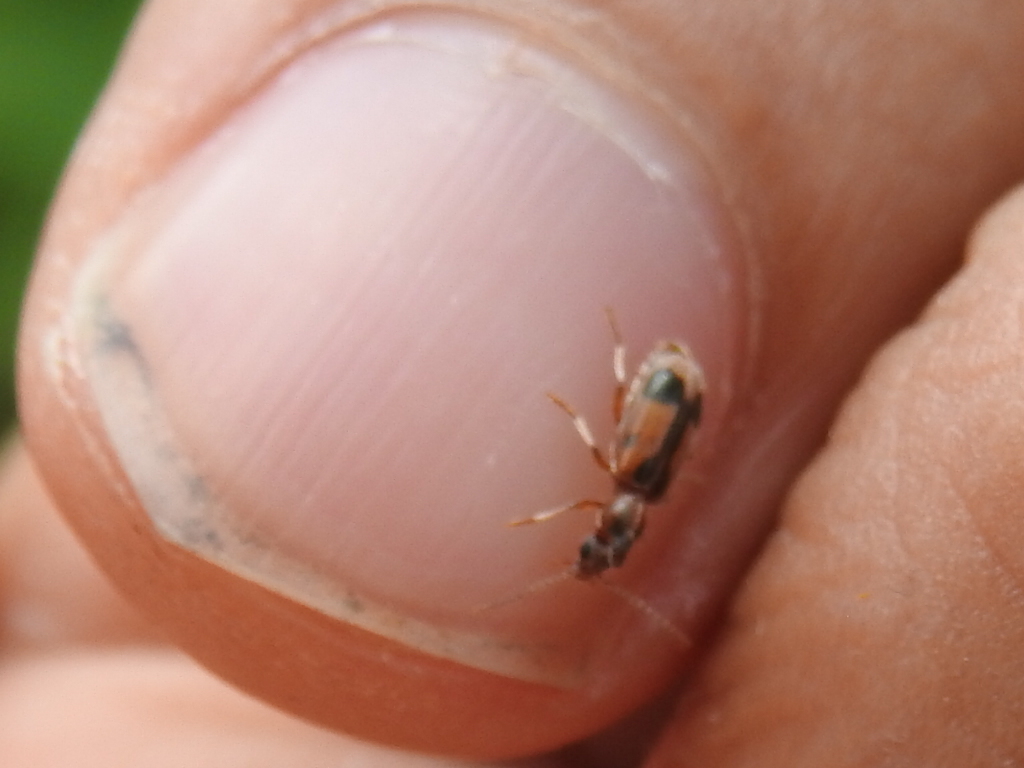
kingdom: Animalia
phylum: Arthropoda
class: Insecta
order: Coleoptera
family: Anthicidae
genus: Notoxus
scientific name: Notoxus monoceros
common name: Monoceros beetle
